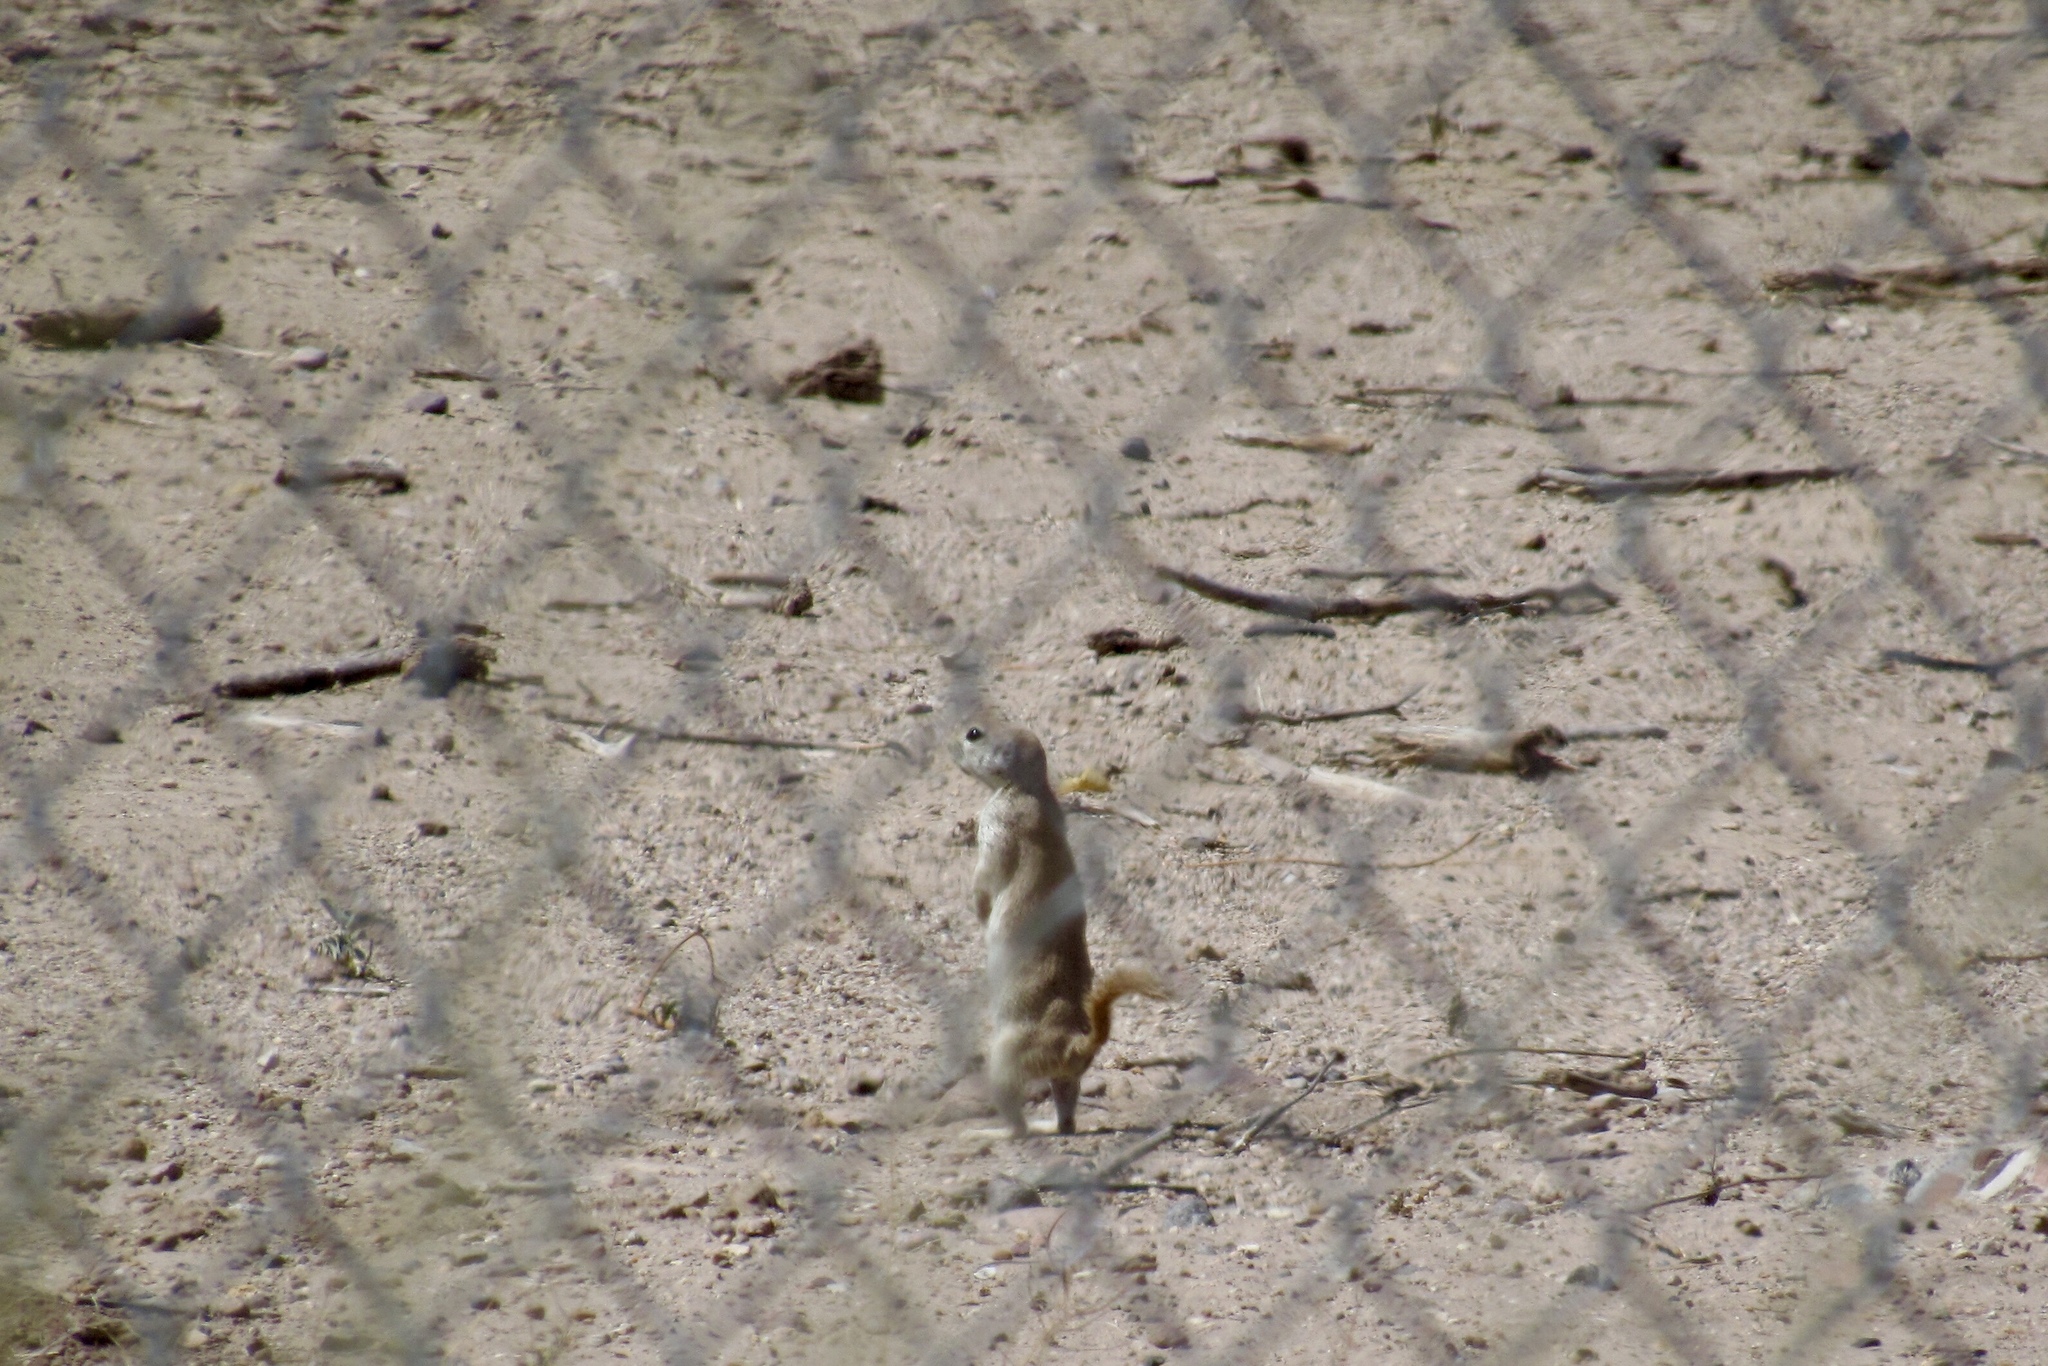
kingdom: Animalia
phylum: Chordata
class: Mammalia
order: Rodentia
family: Sciuridae
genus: Xerospermophilus
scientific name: Xerospermophilus tereticaudus
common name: Round-tailed ground squirrel
